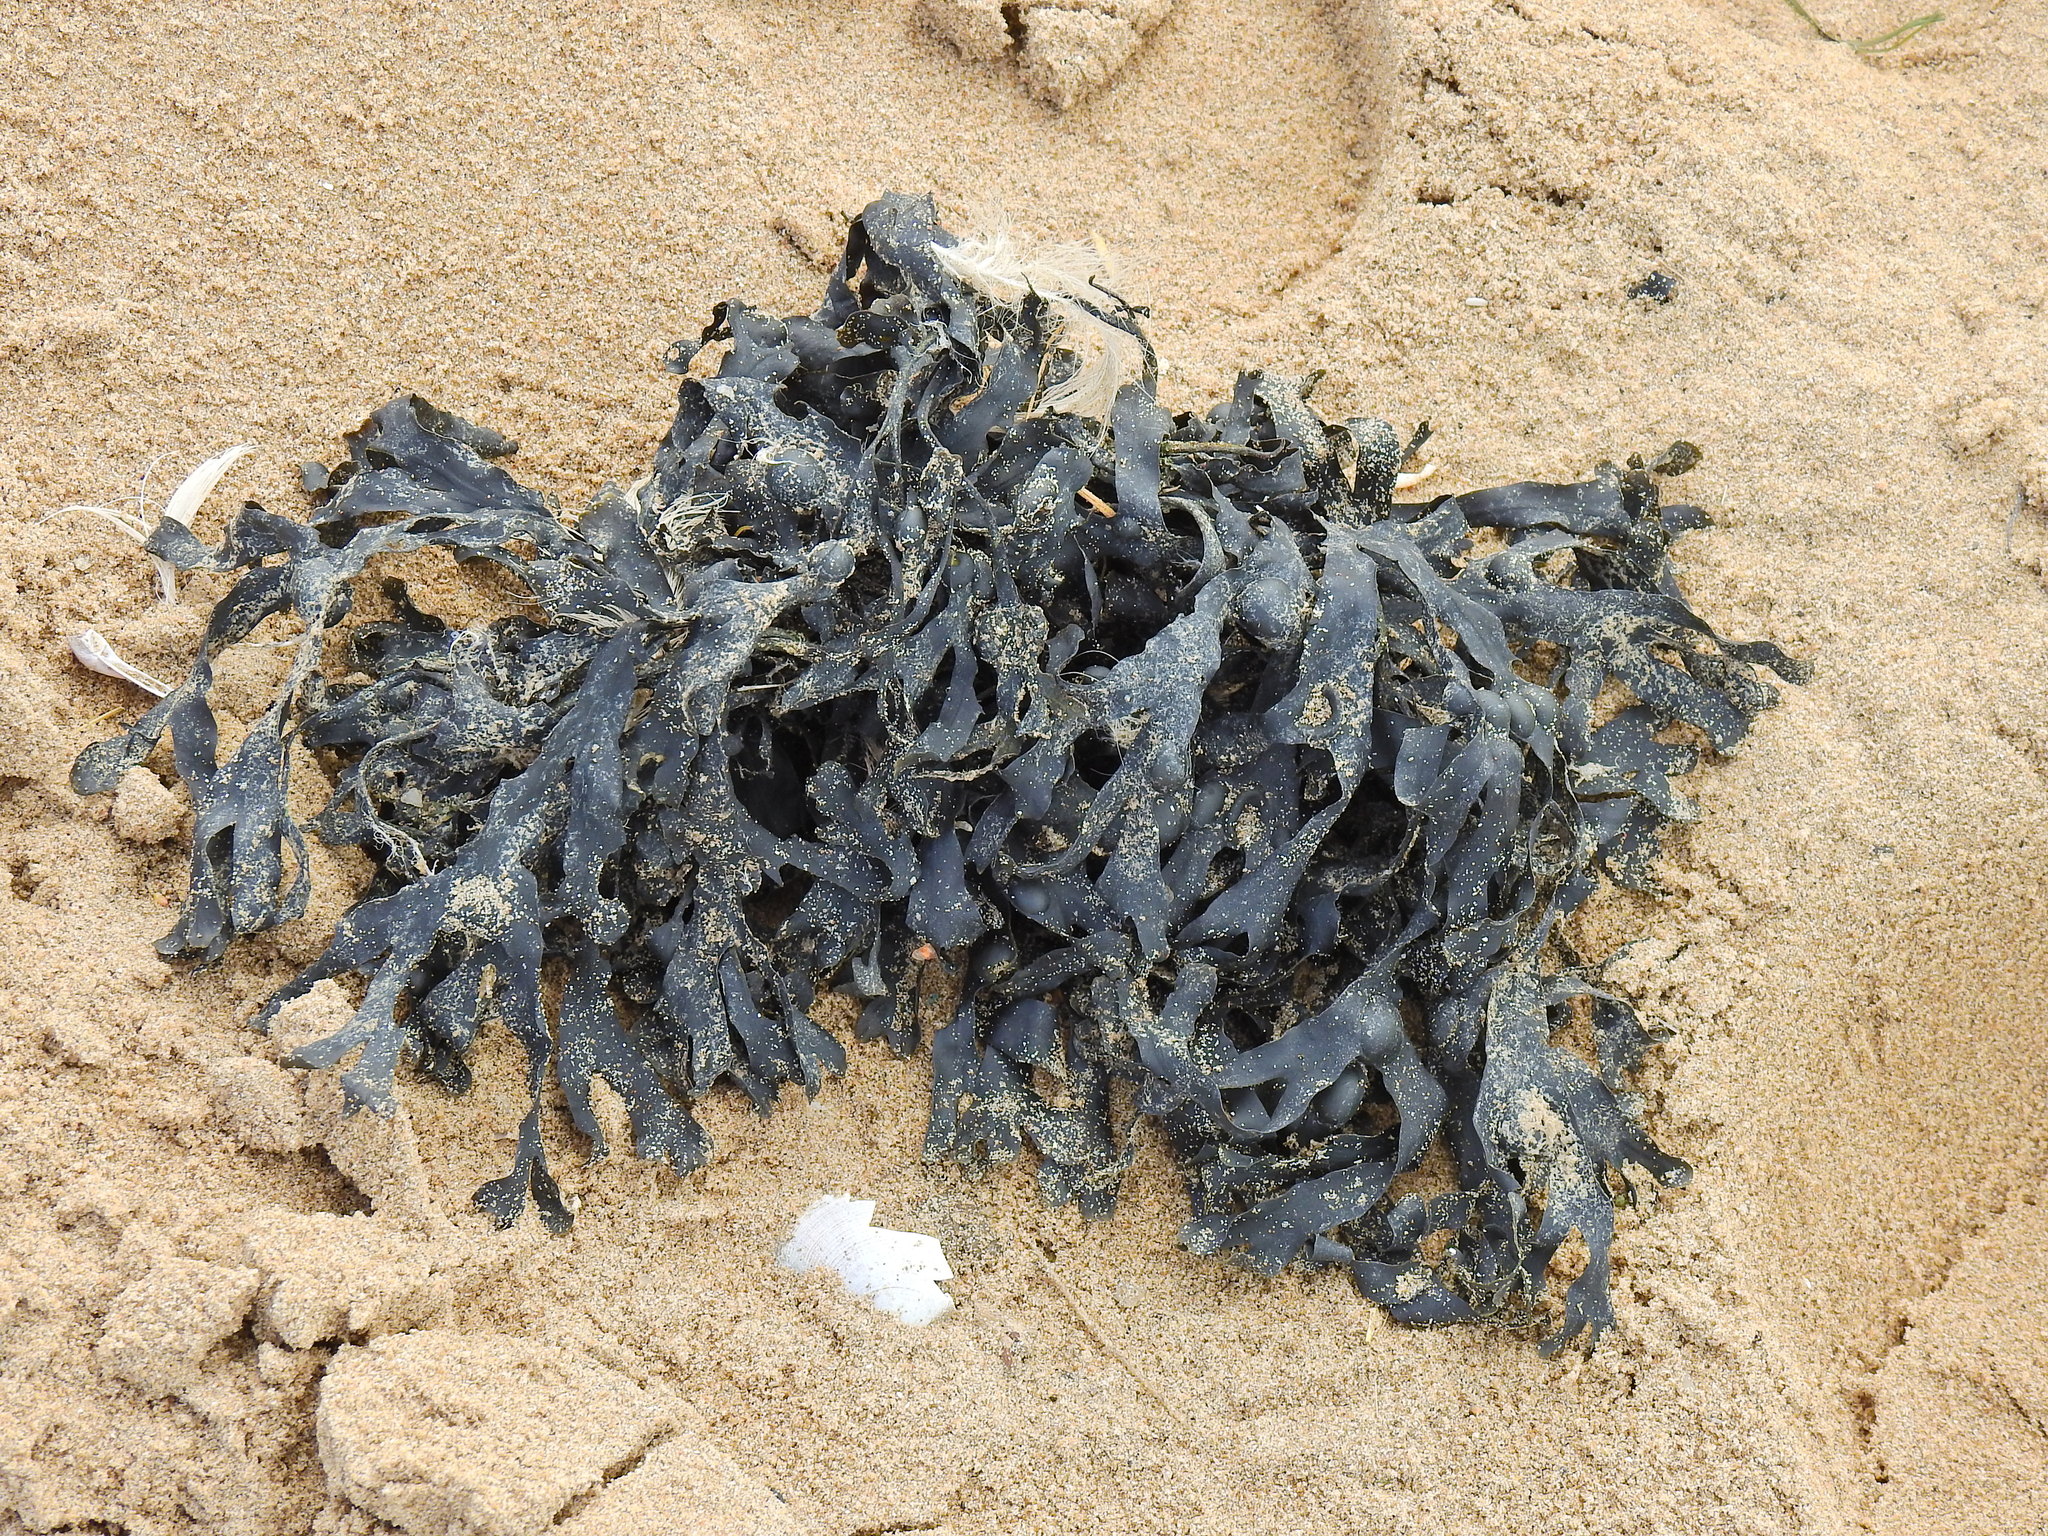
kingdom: Chromista
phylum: Ochrophyta
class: Phaeophyceae
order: Fucales
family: Fucaceae
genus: Fucus
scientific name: Fucus vesiculosus
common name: Bladder wrack
